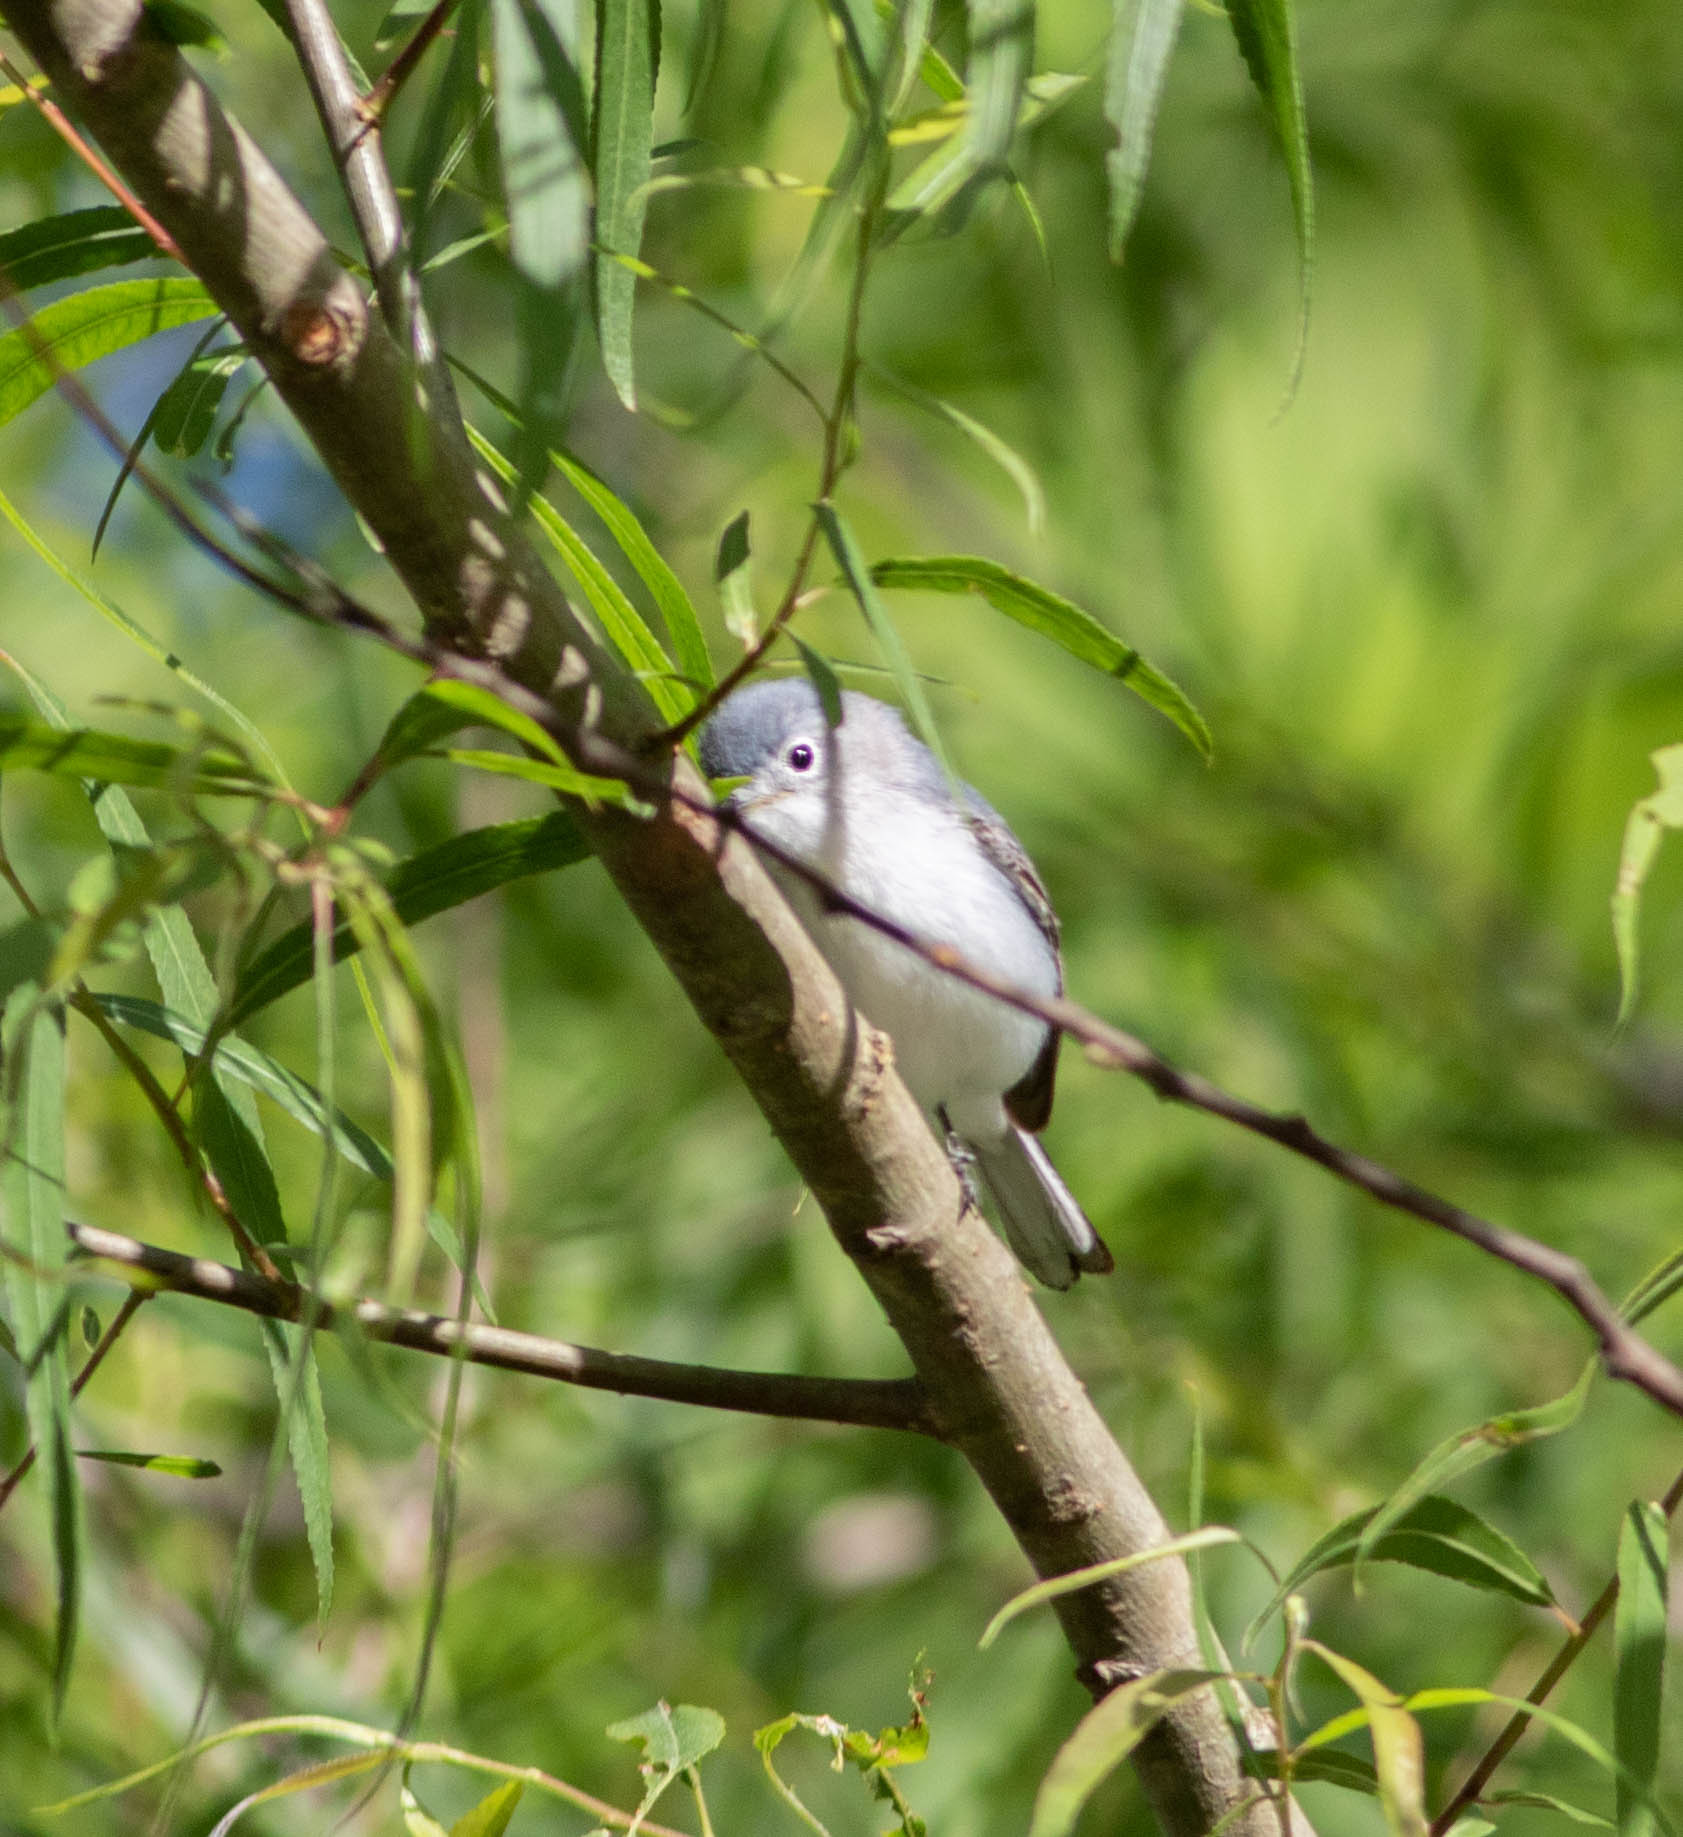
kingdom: Animalia
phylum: Chordata
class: Aves
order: Passeriformes
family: Polioptilidae
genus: Polioptila
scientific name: Polioptila caerulea
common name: Blue-gray gnatcatcher
